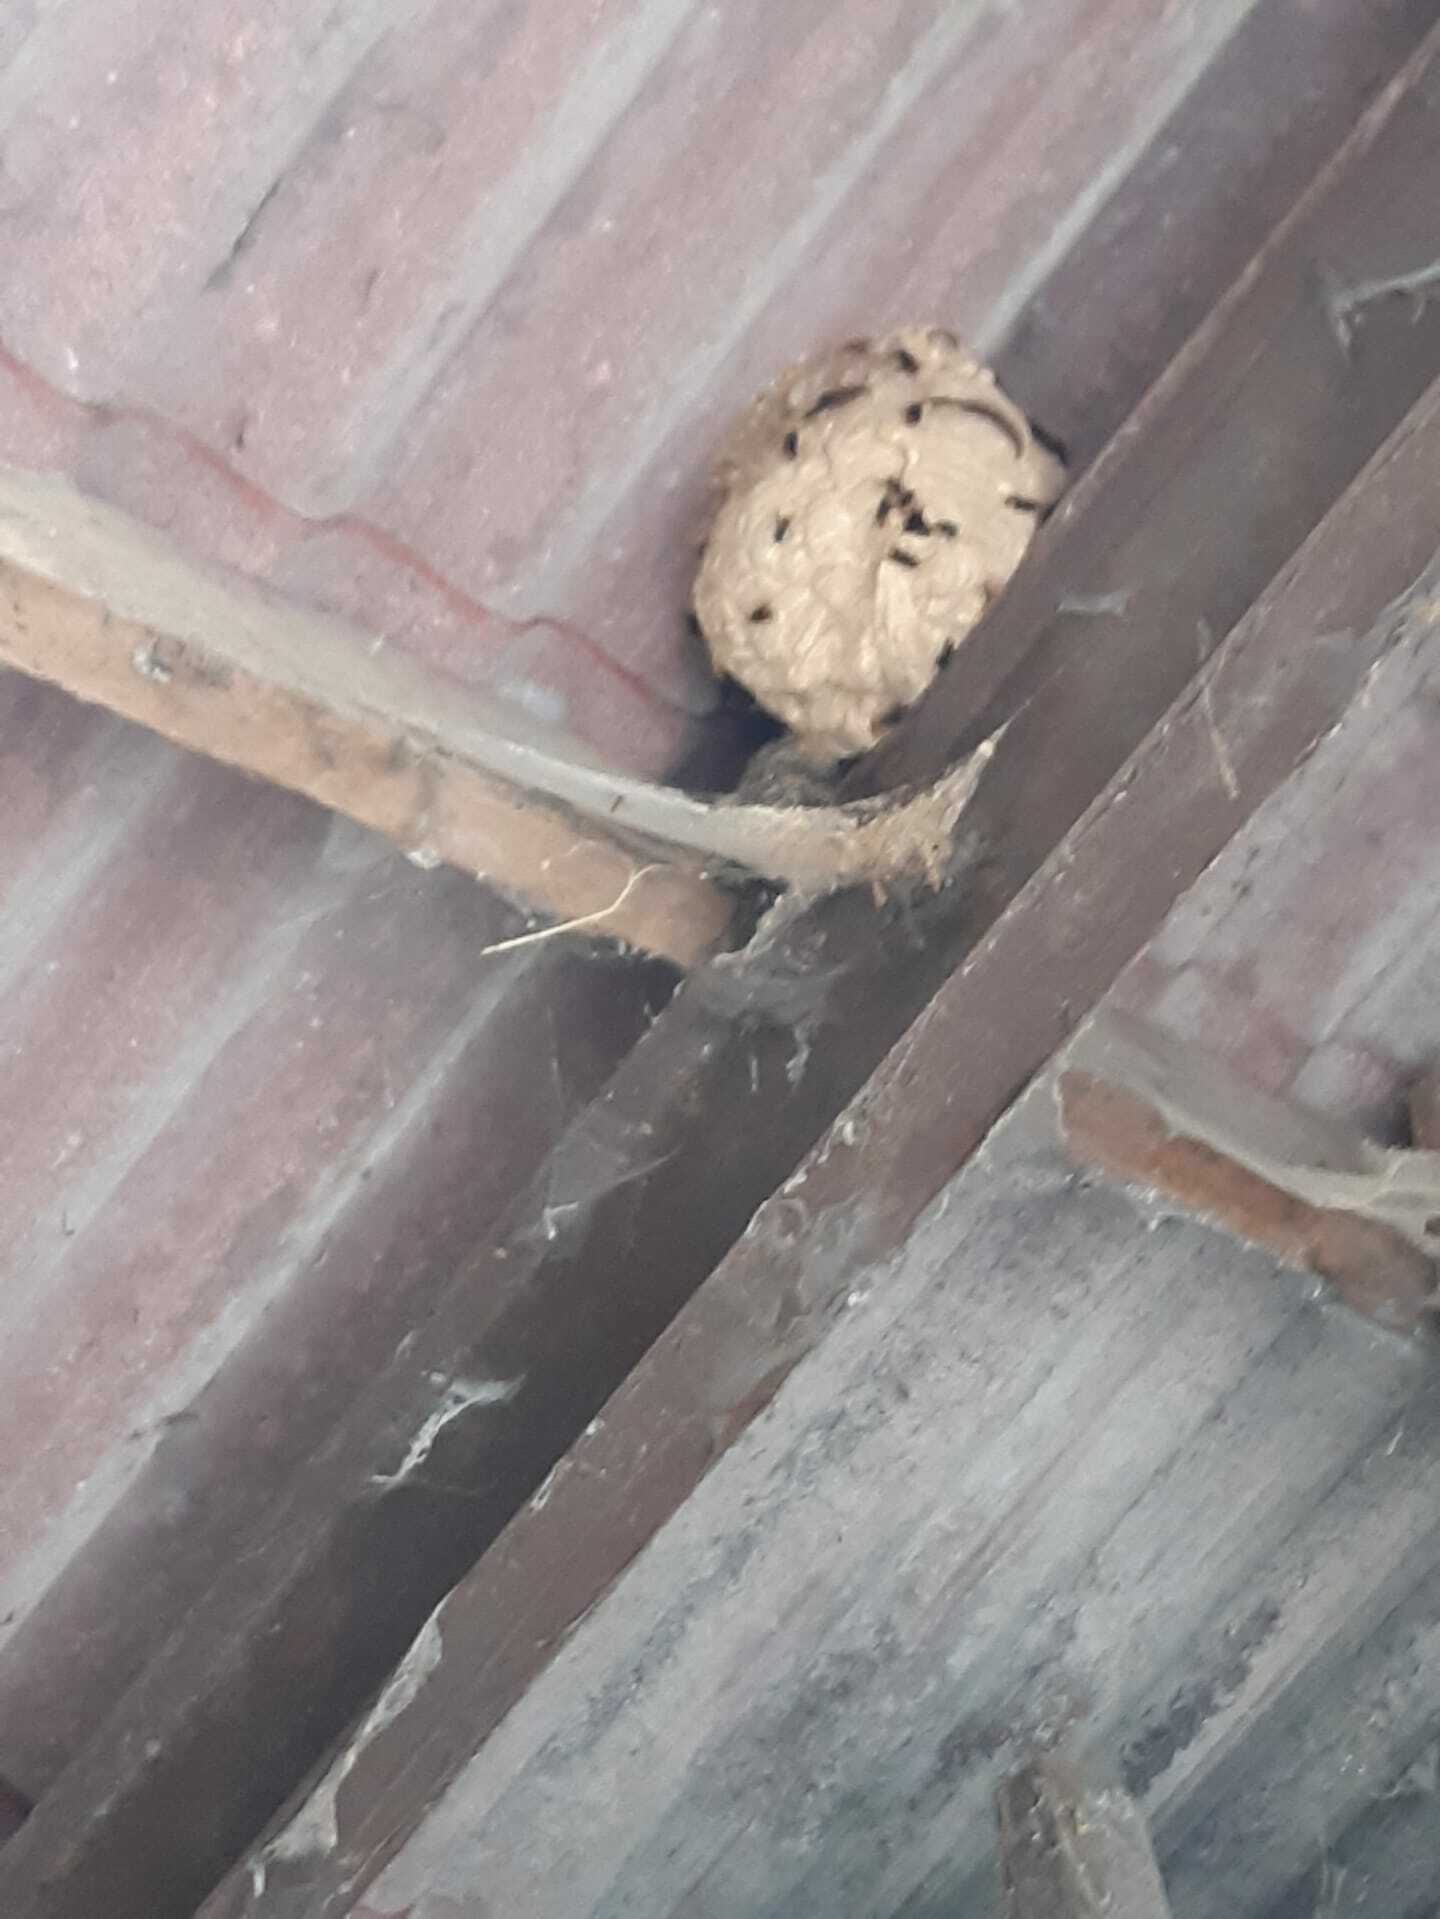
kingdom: Animalia
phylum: Arthropoda
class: Insecta
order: Hymenoptera
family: Vespidae
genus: Vespa
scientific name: Vespa velutina
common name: Asian hornet
